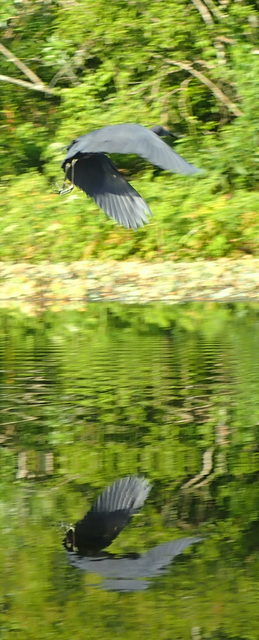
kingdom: Animalia
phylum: Chordata
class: Aves
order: Pelecaniformes
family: Ardeidae
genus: Egretta
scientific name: Egretta caerulea
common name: Little blue heron
